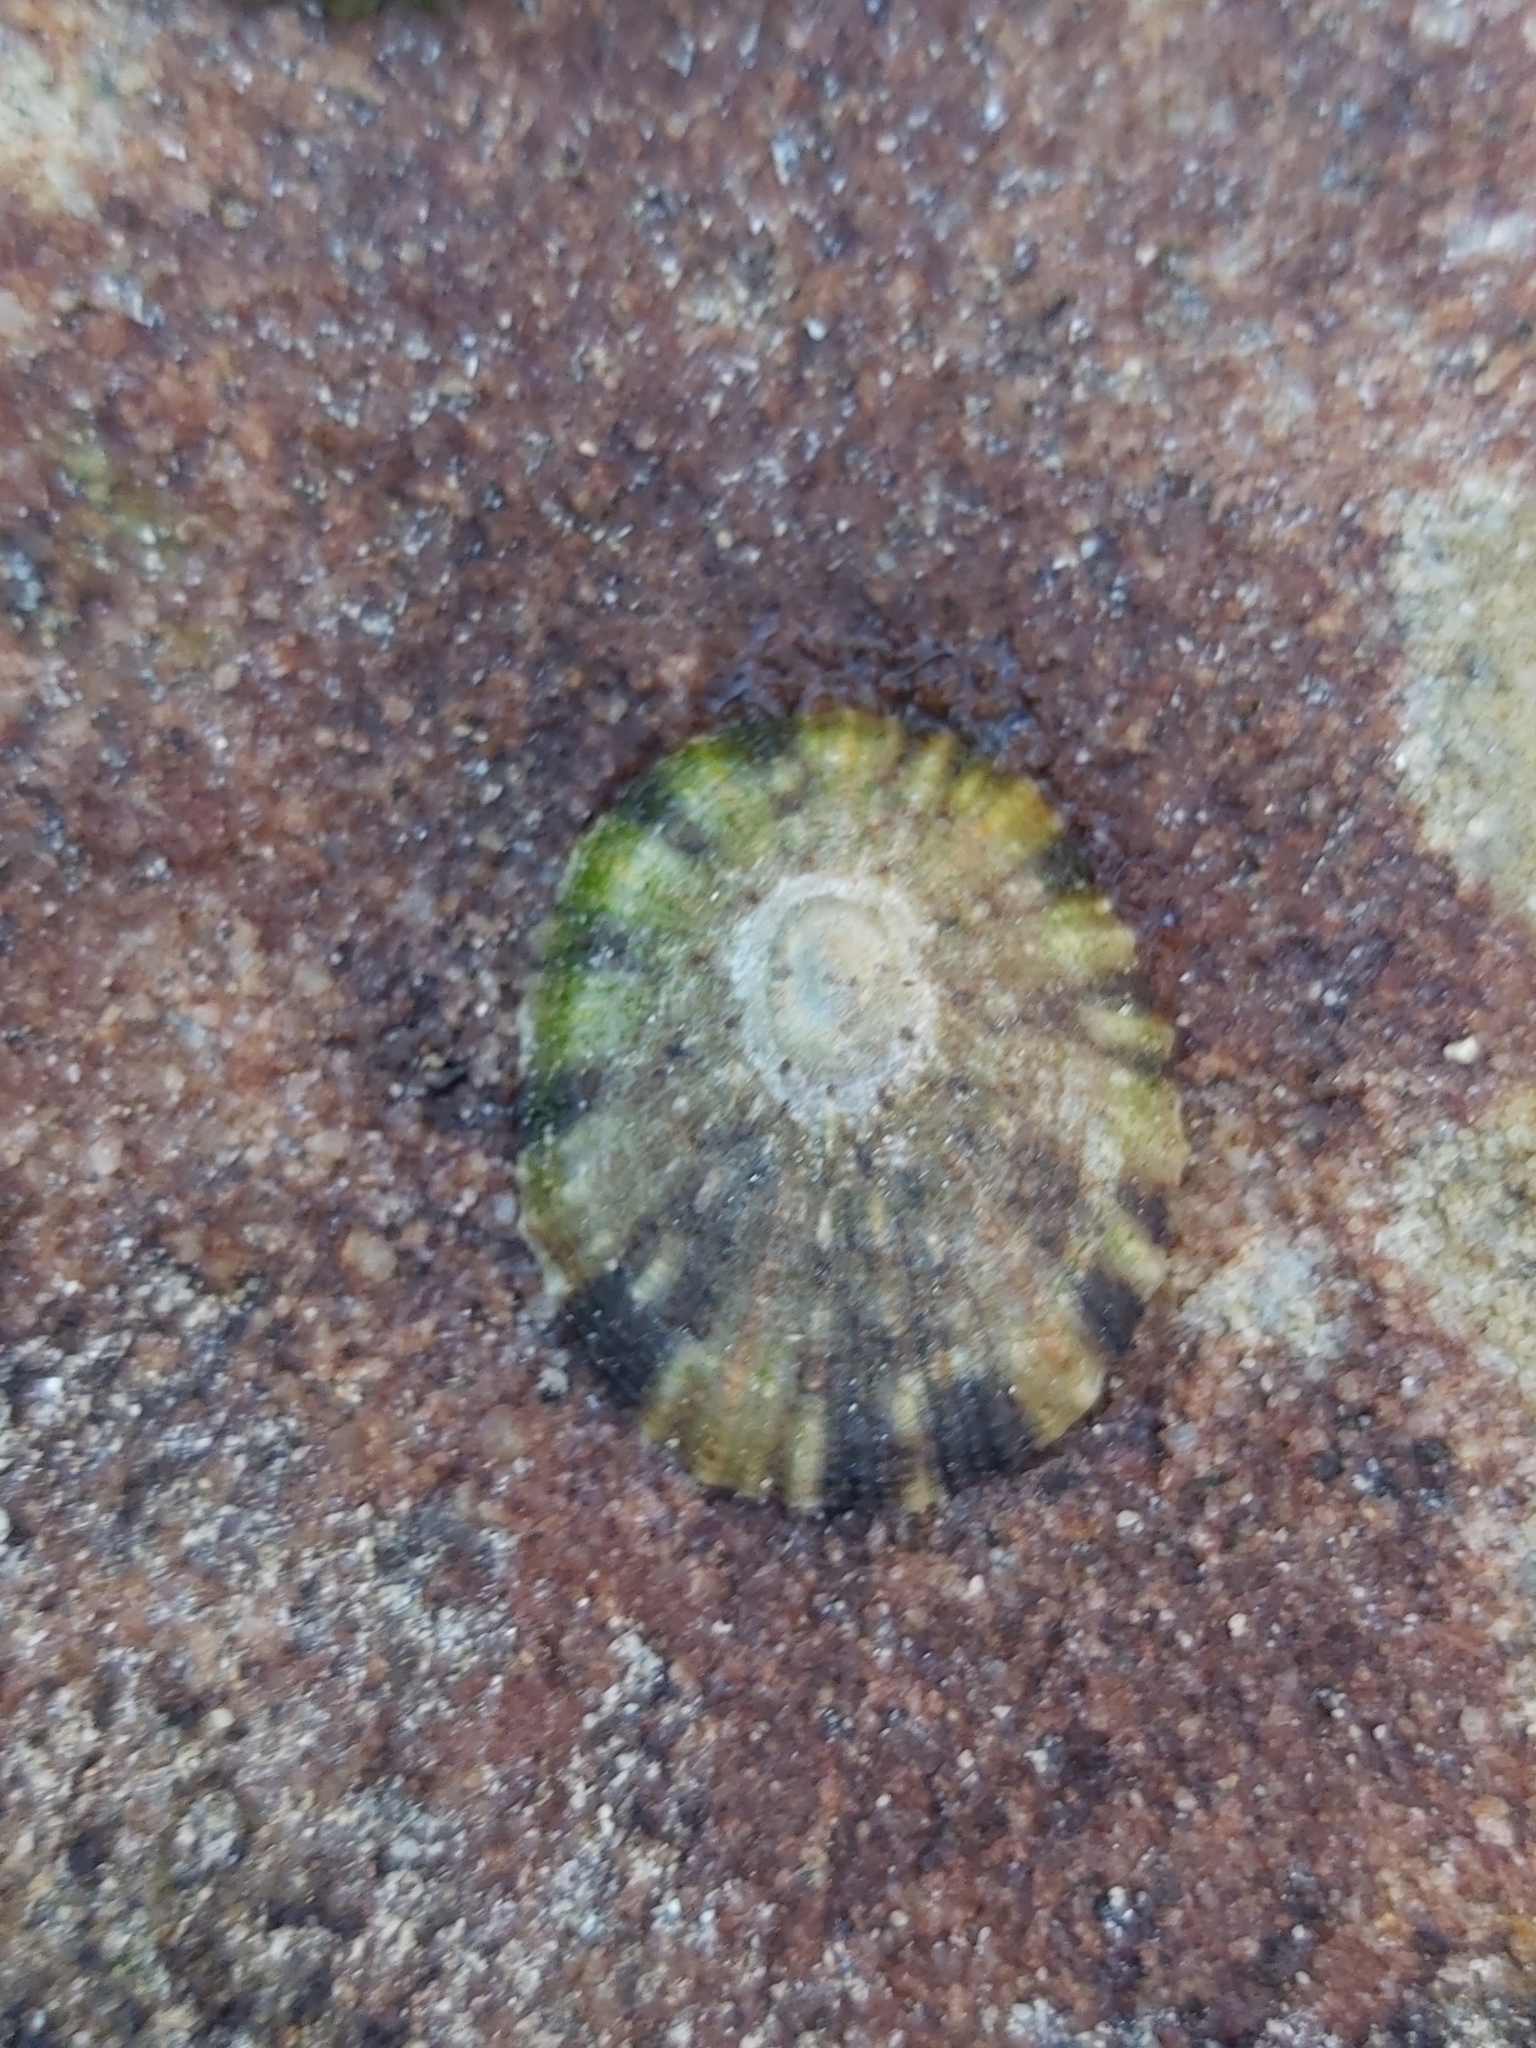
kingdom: Animalia
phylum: Mollusca
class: Gastropoda
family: Nacellidae
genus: Cellana
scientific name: Cellana tramoserica
